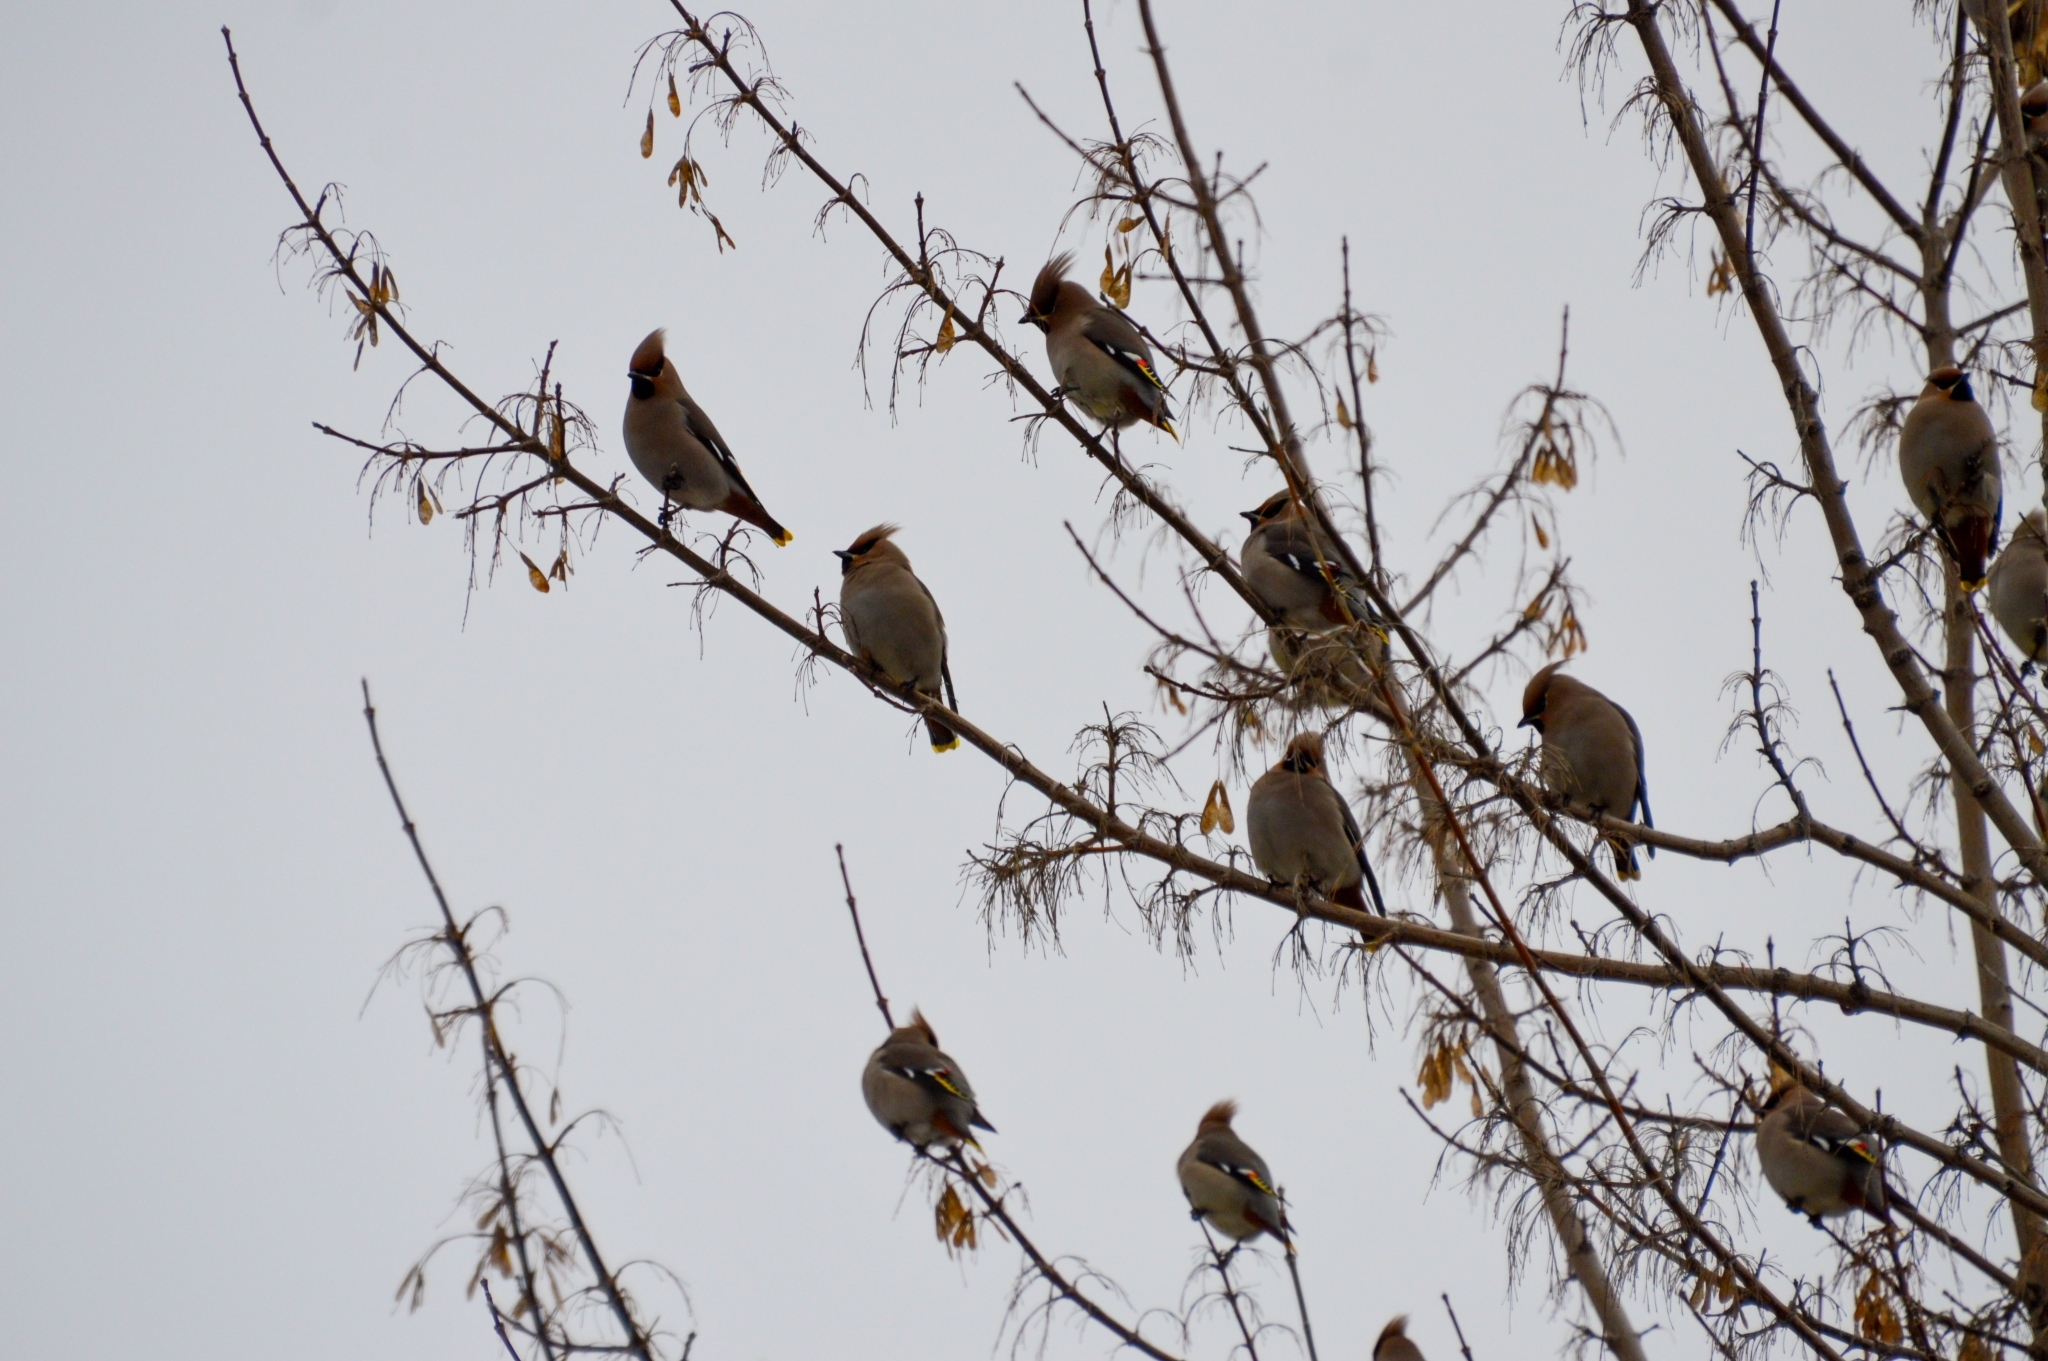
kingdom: Animalia
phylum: Chordata
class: Aves
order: Passeriformes
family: Bombycillidae
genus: Bombycilla
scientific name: Bombycilla garrulus
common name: Bohemian waxwing
